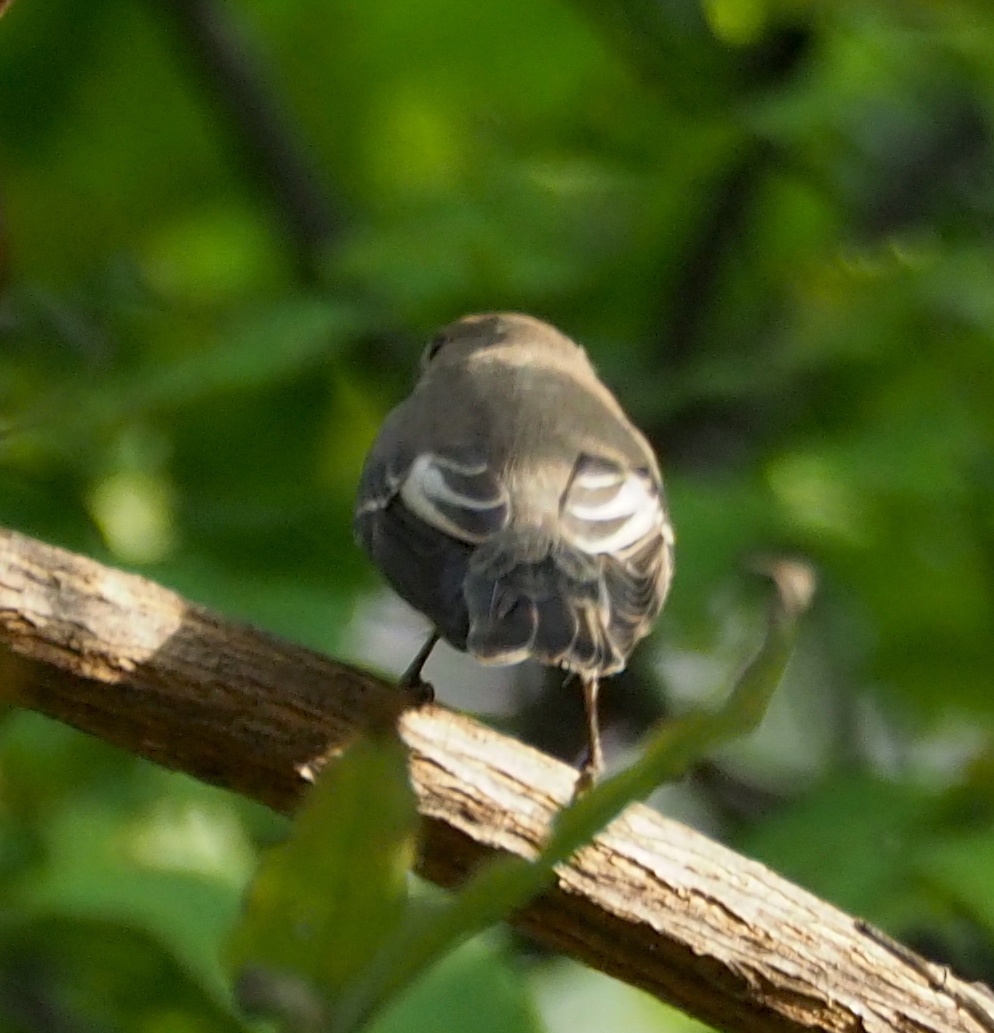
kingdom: Animalia
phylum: Chordata
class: Aves
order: Passeriformes
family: Muscicapidae
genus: Ficedula
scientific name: Ficedula hypoleuca
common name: European pied flycatcher
